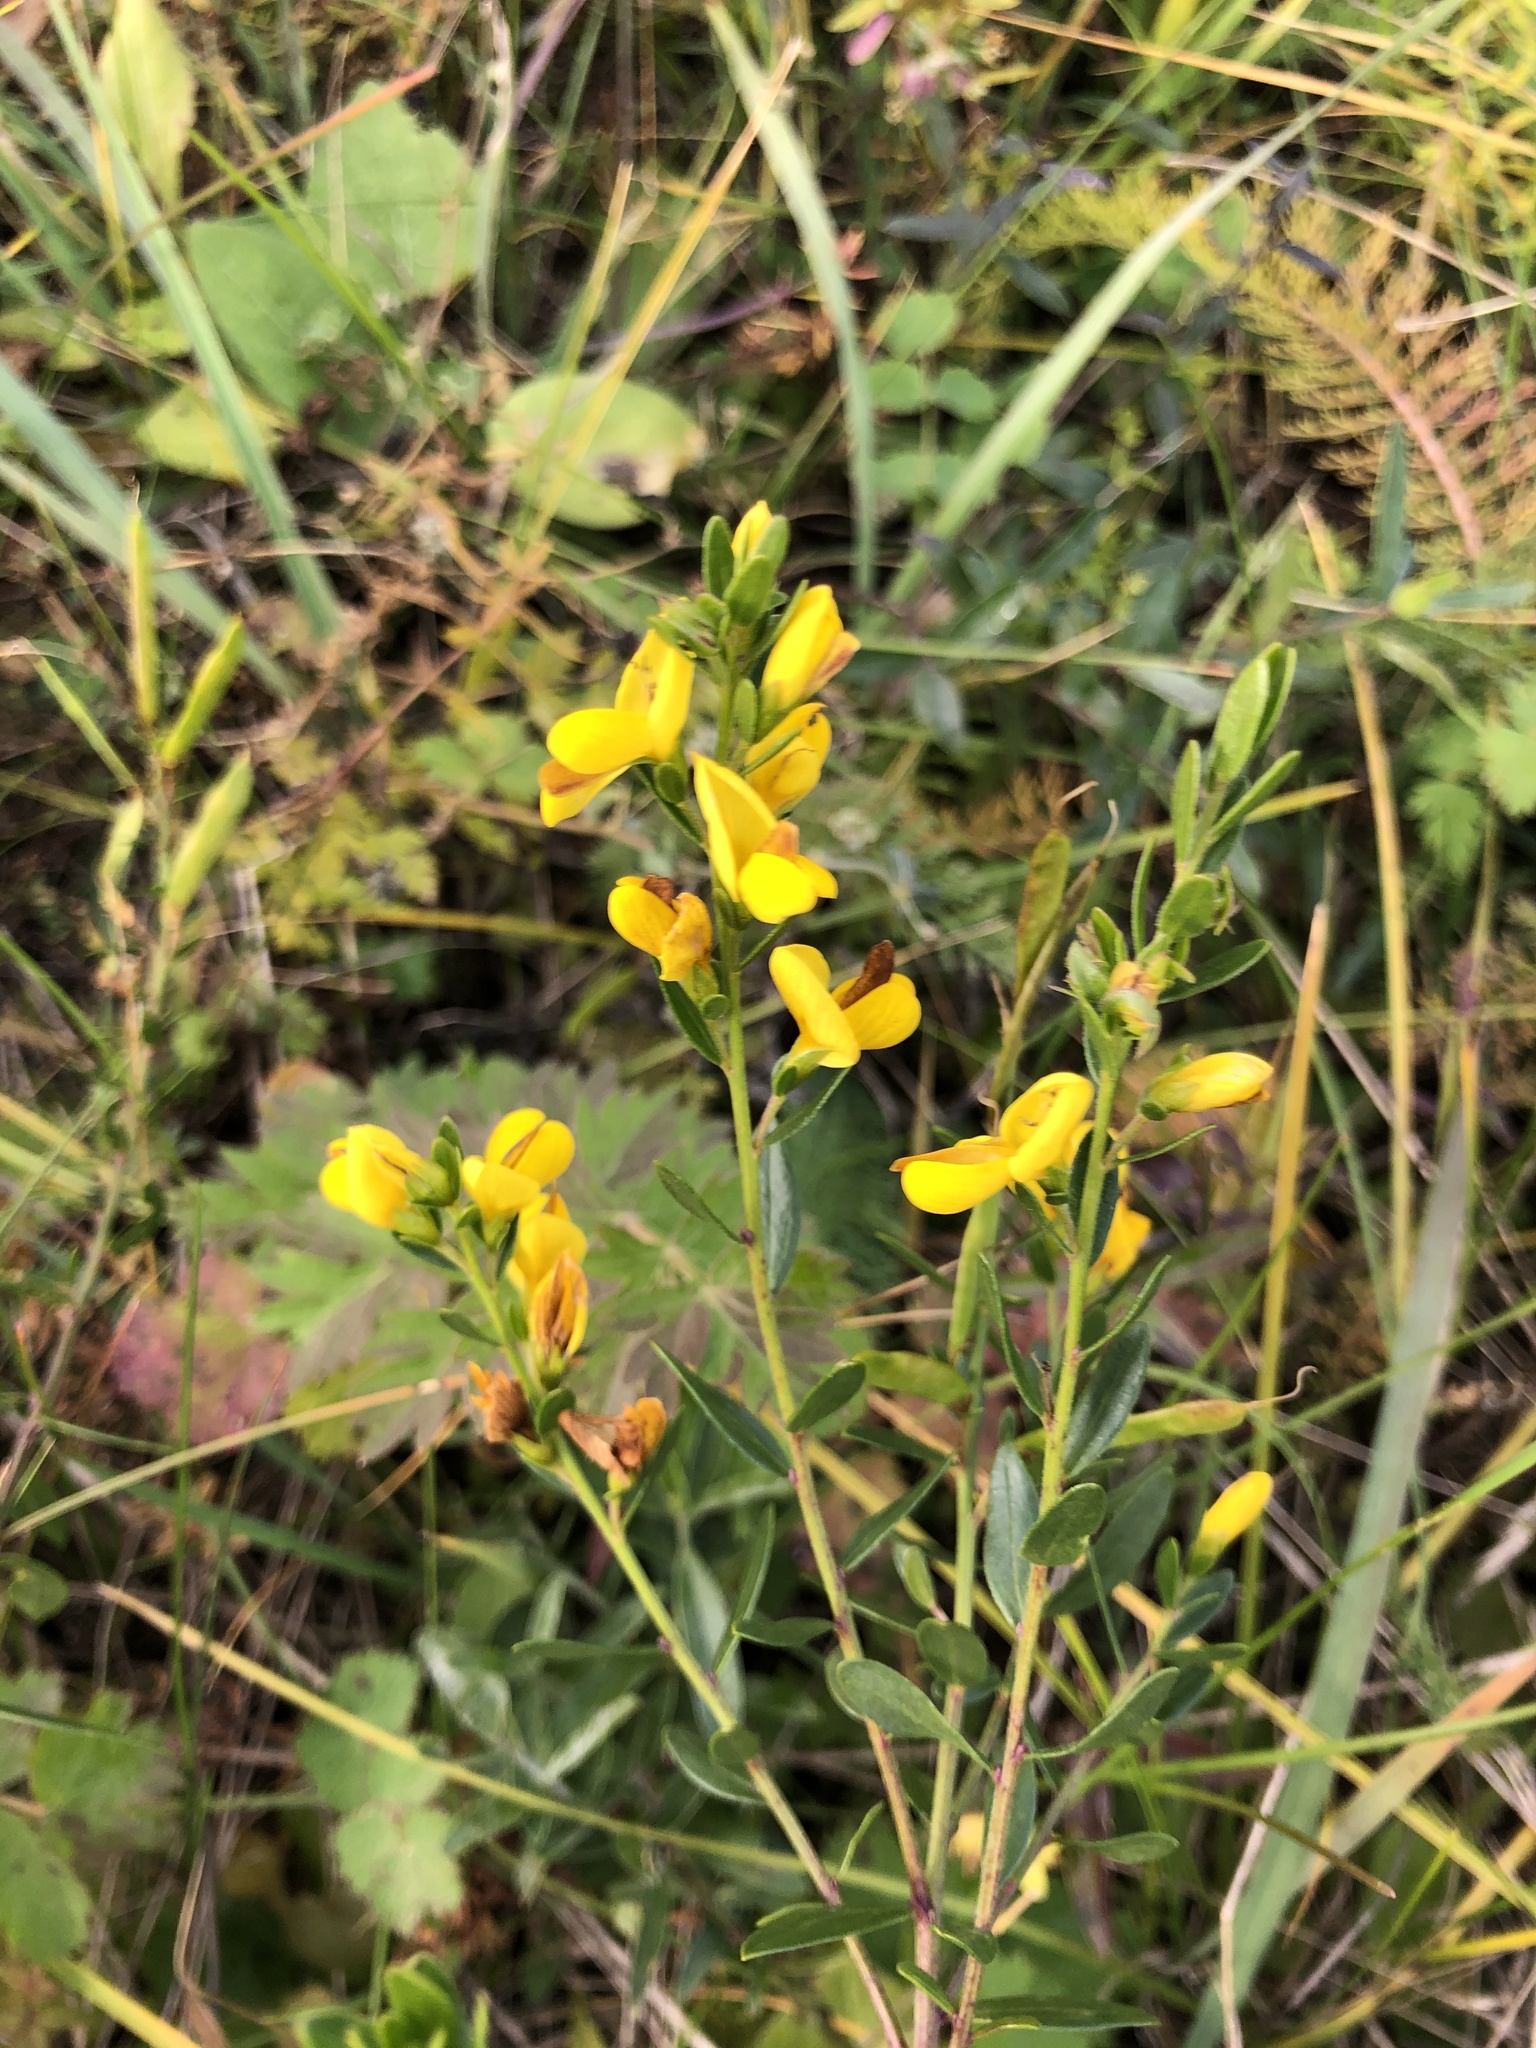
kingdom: Plantae
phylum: Tracheophyta
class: Magnoliopsida
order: Fabales
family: Fabaceae
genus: Genista
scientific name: Genista tinctoria
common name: Dyer's greenweed
